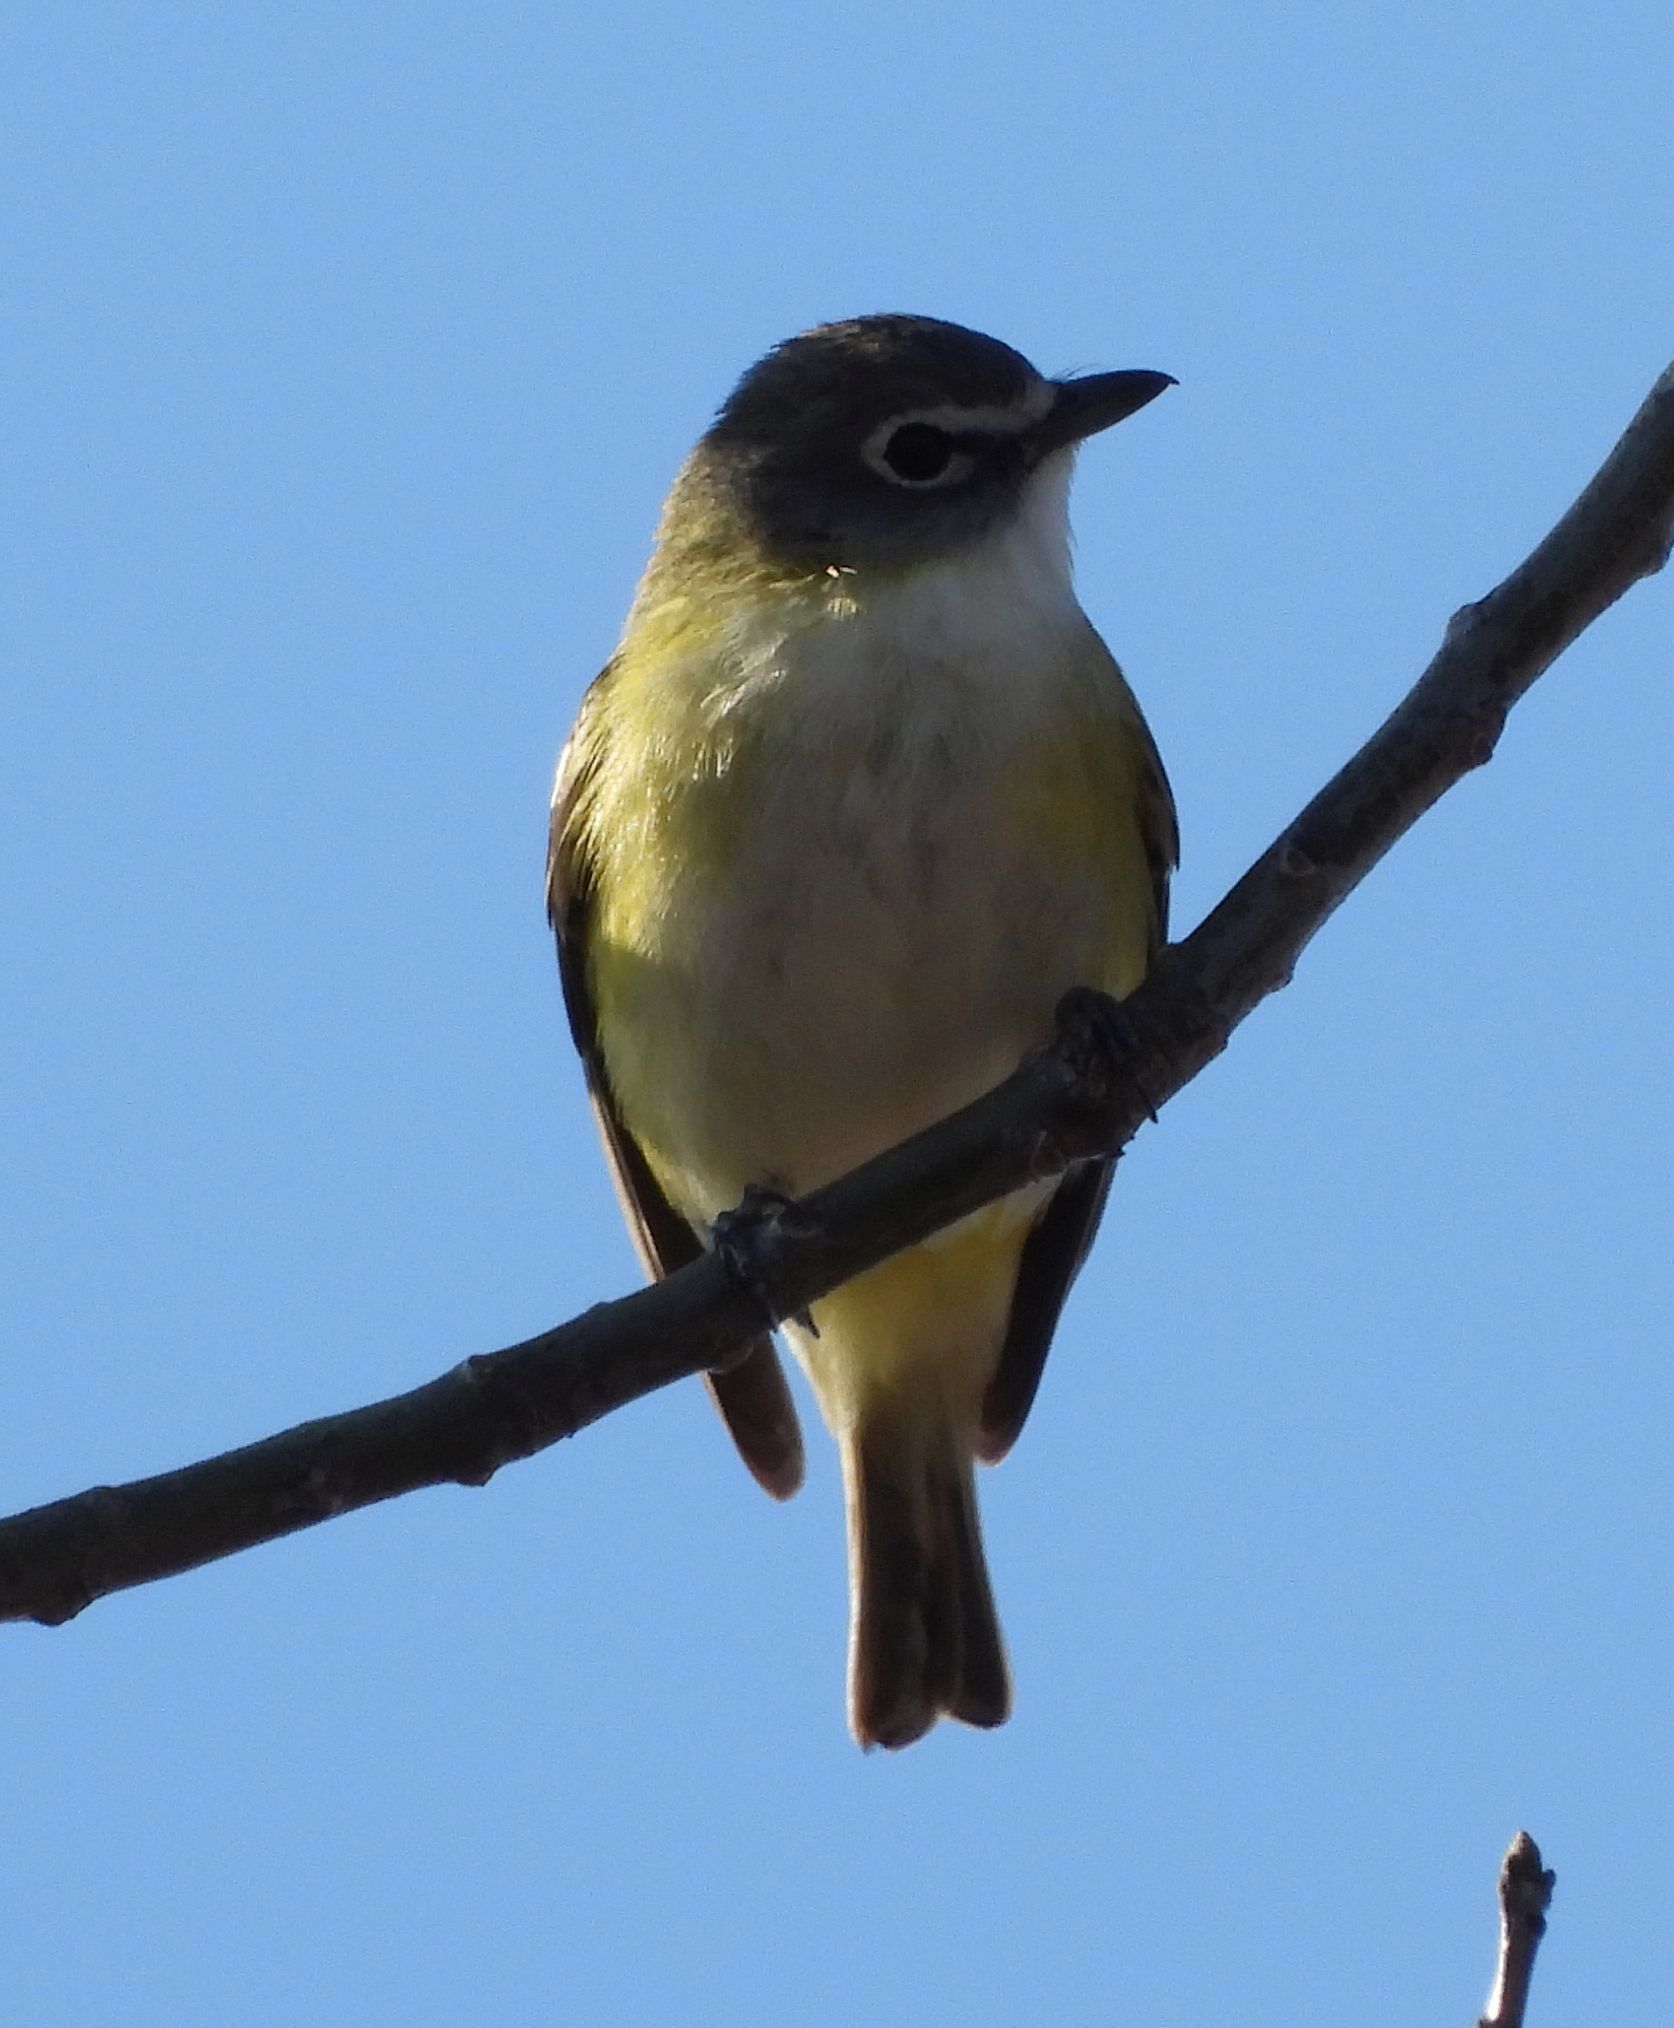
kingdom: Animalia
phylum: Chordata
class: Aves
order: Passeriformes
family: Vireonidae
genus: Vireo
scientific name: Vireo solitarius
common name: Blue-headed vireo
